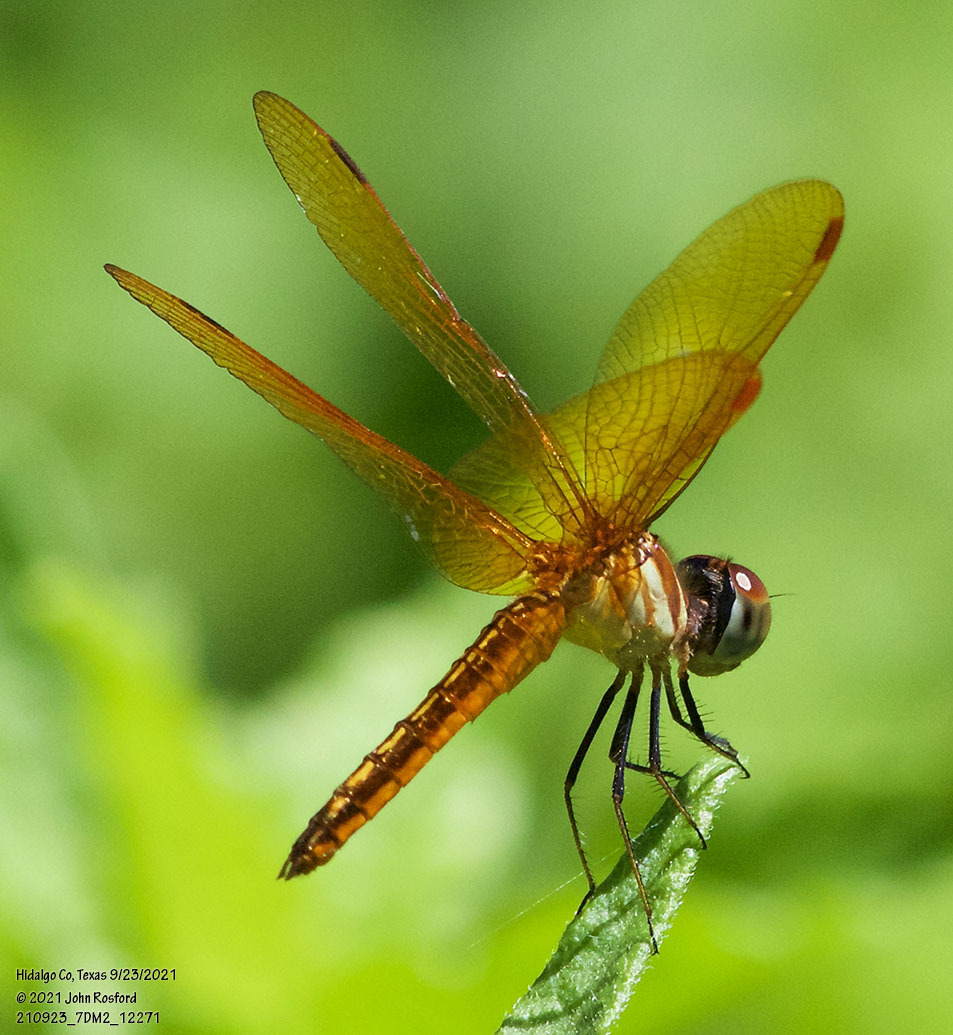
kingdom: Animalia
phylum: Arthropoda
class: Insecta
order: Odonata
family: Libellulidae
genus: Perithemis
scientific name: Perithemis domitia
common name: Slough amberwing
